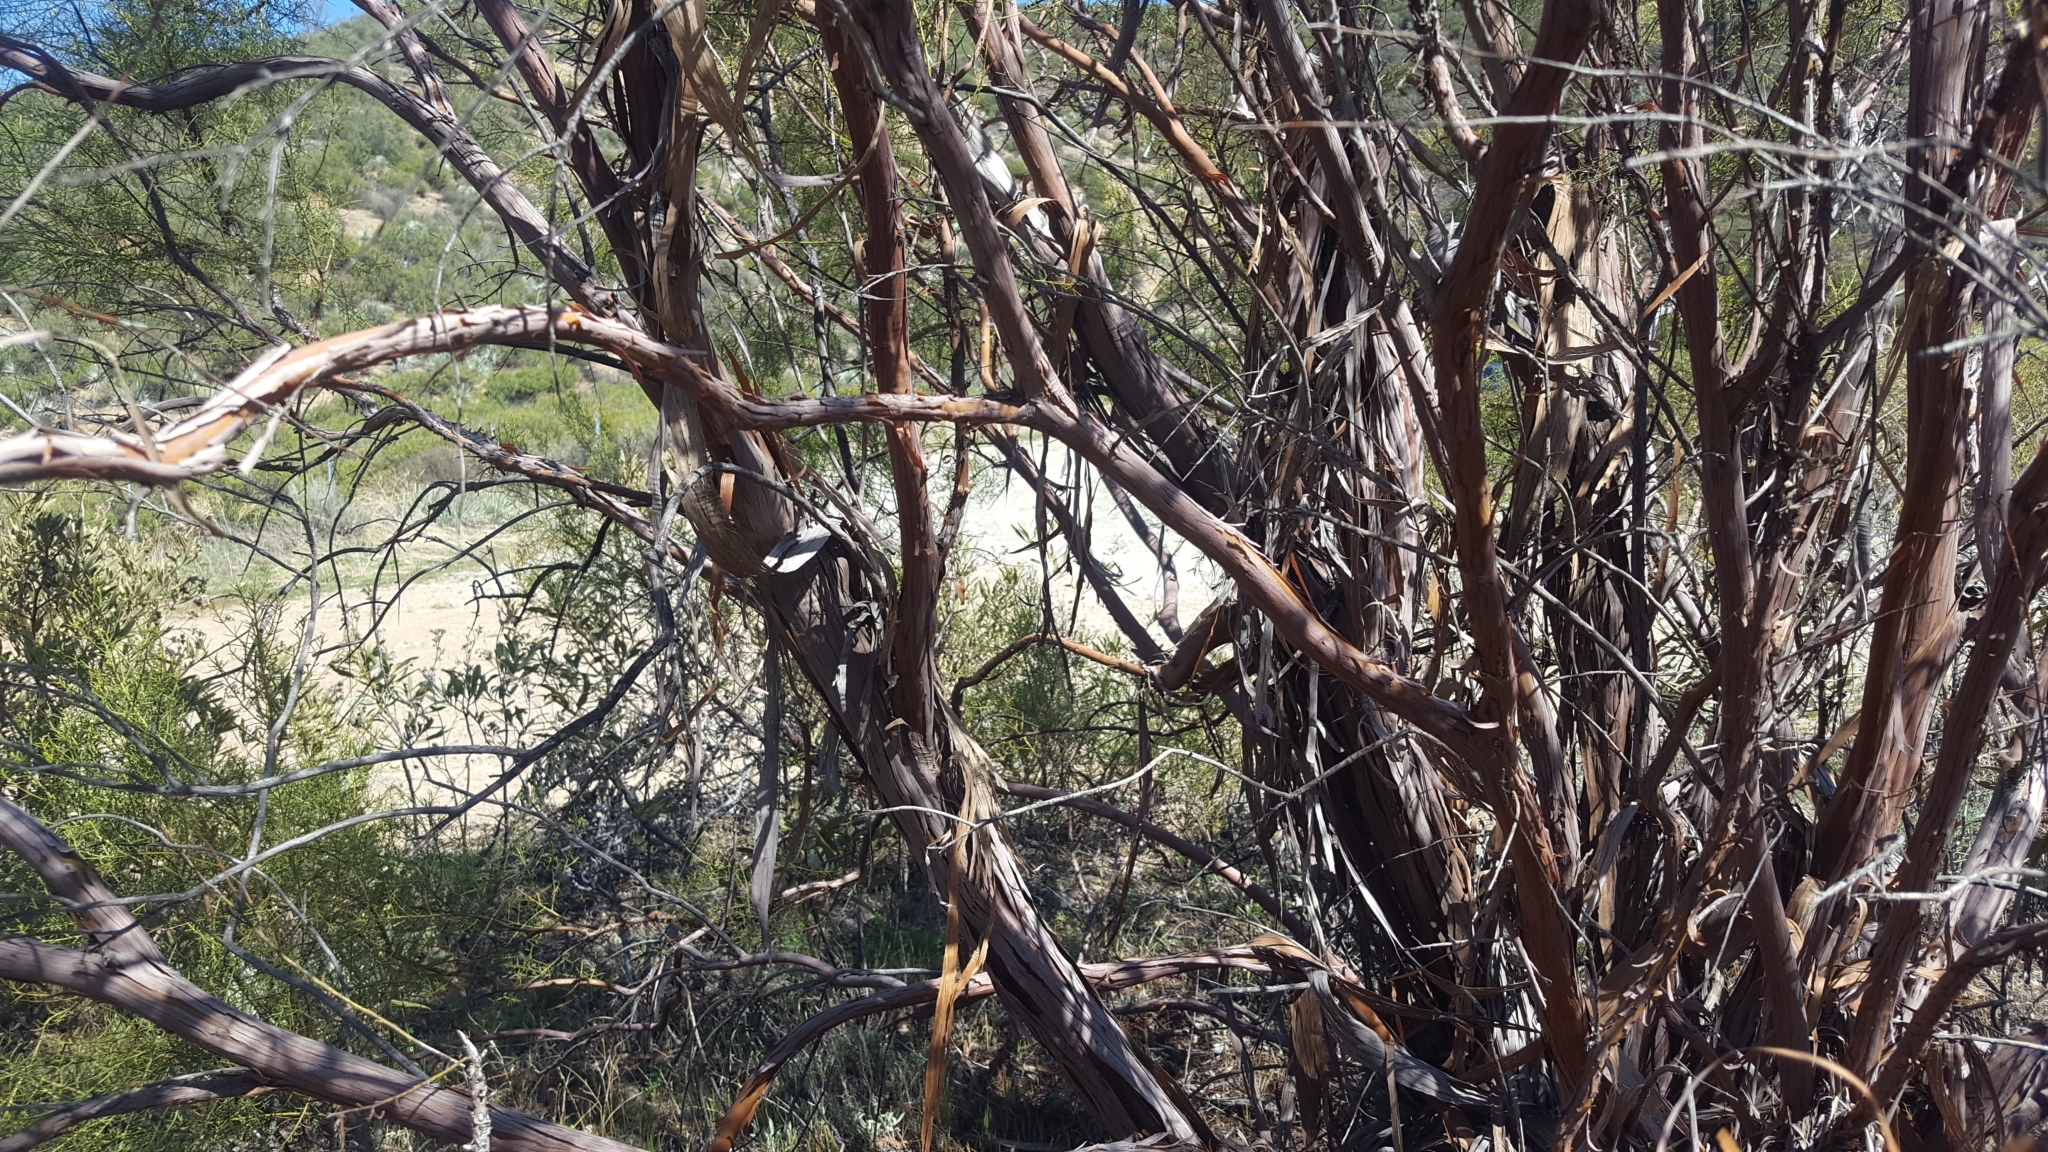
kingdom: Plantae
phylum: Tracheophyta
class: Magnoliopsida
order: Rosales
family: Rosaceae
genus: Adenostoma
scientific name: Adenostoma sparsifolium
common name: Red shank
